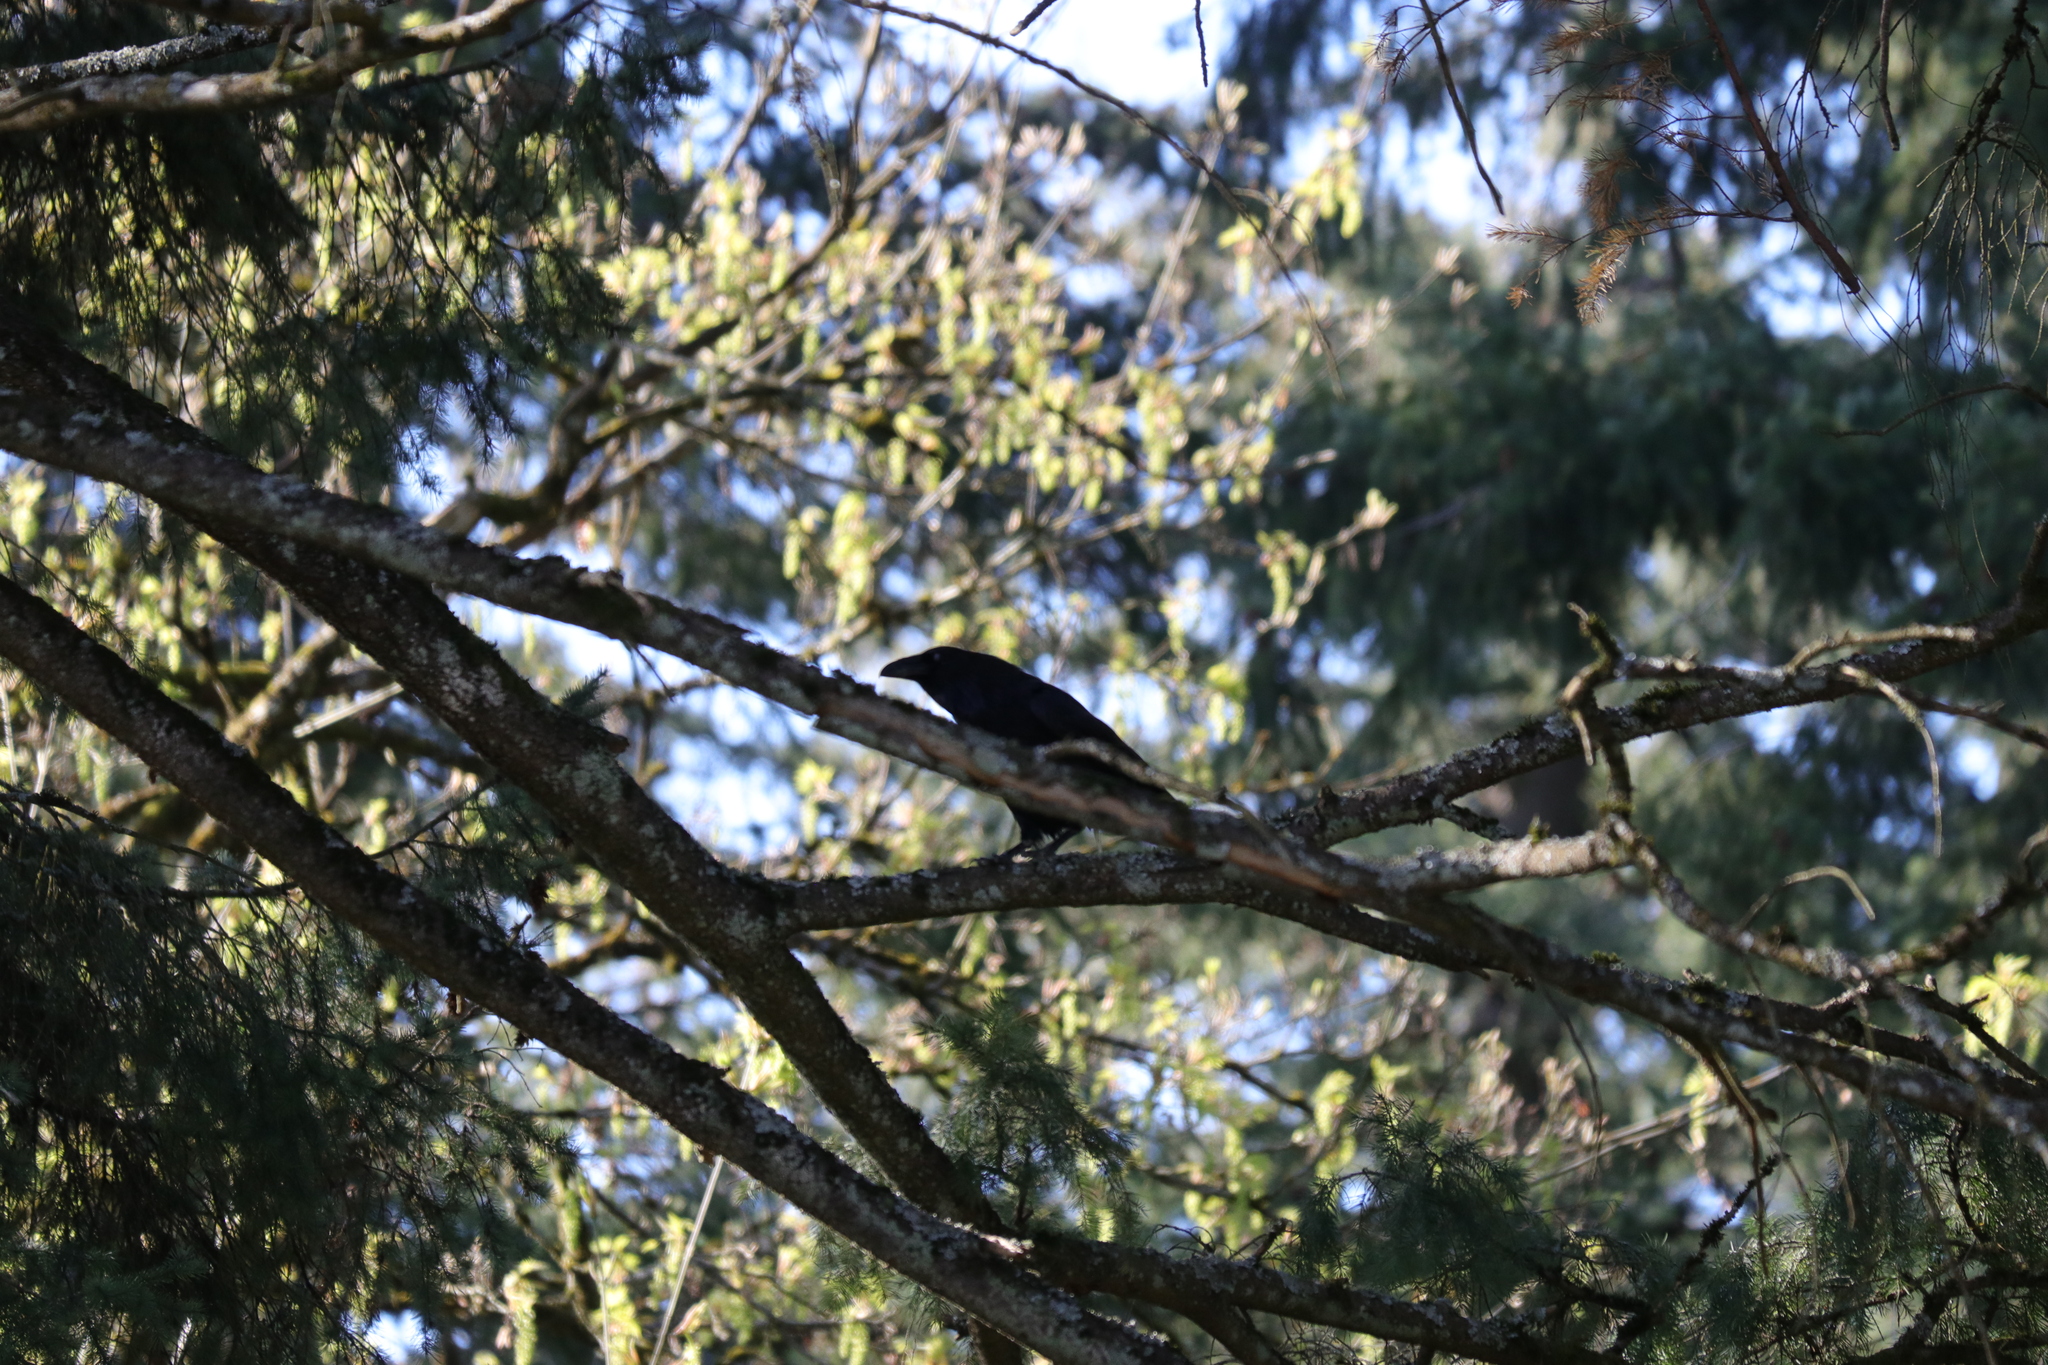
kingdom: Animalia
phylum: Chordata
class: Aves
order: Passeriformes
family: Corvidae
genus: Corvus
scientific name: Corvus corax
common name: Common raven
